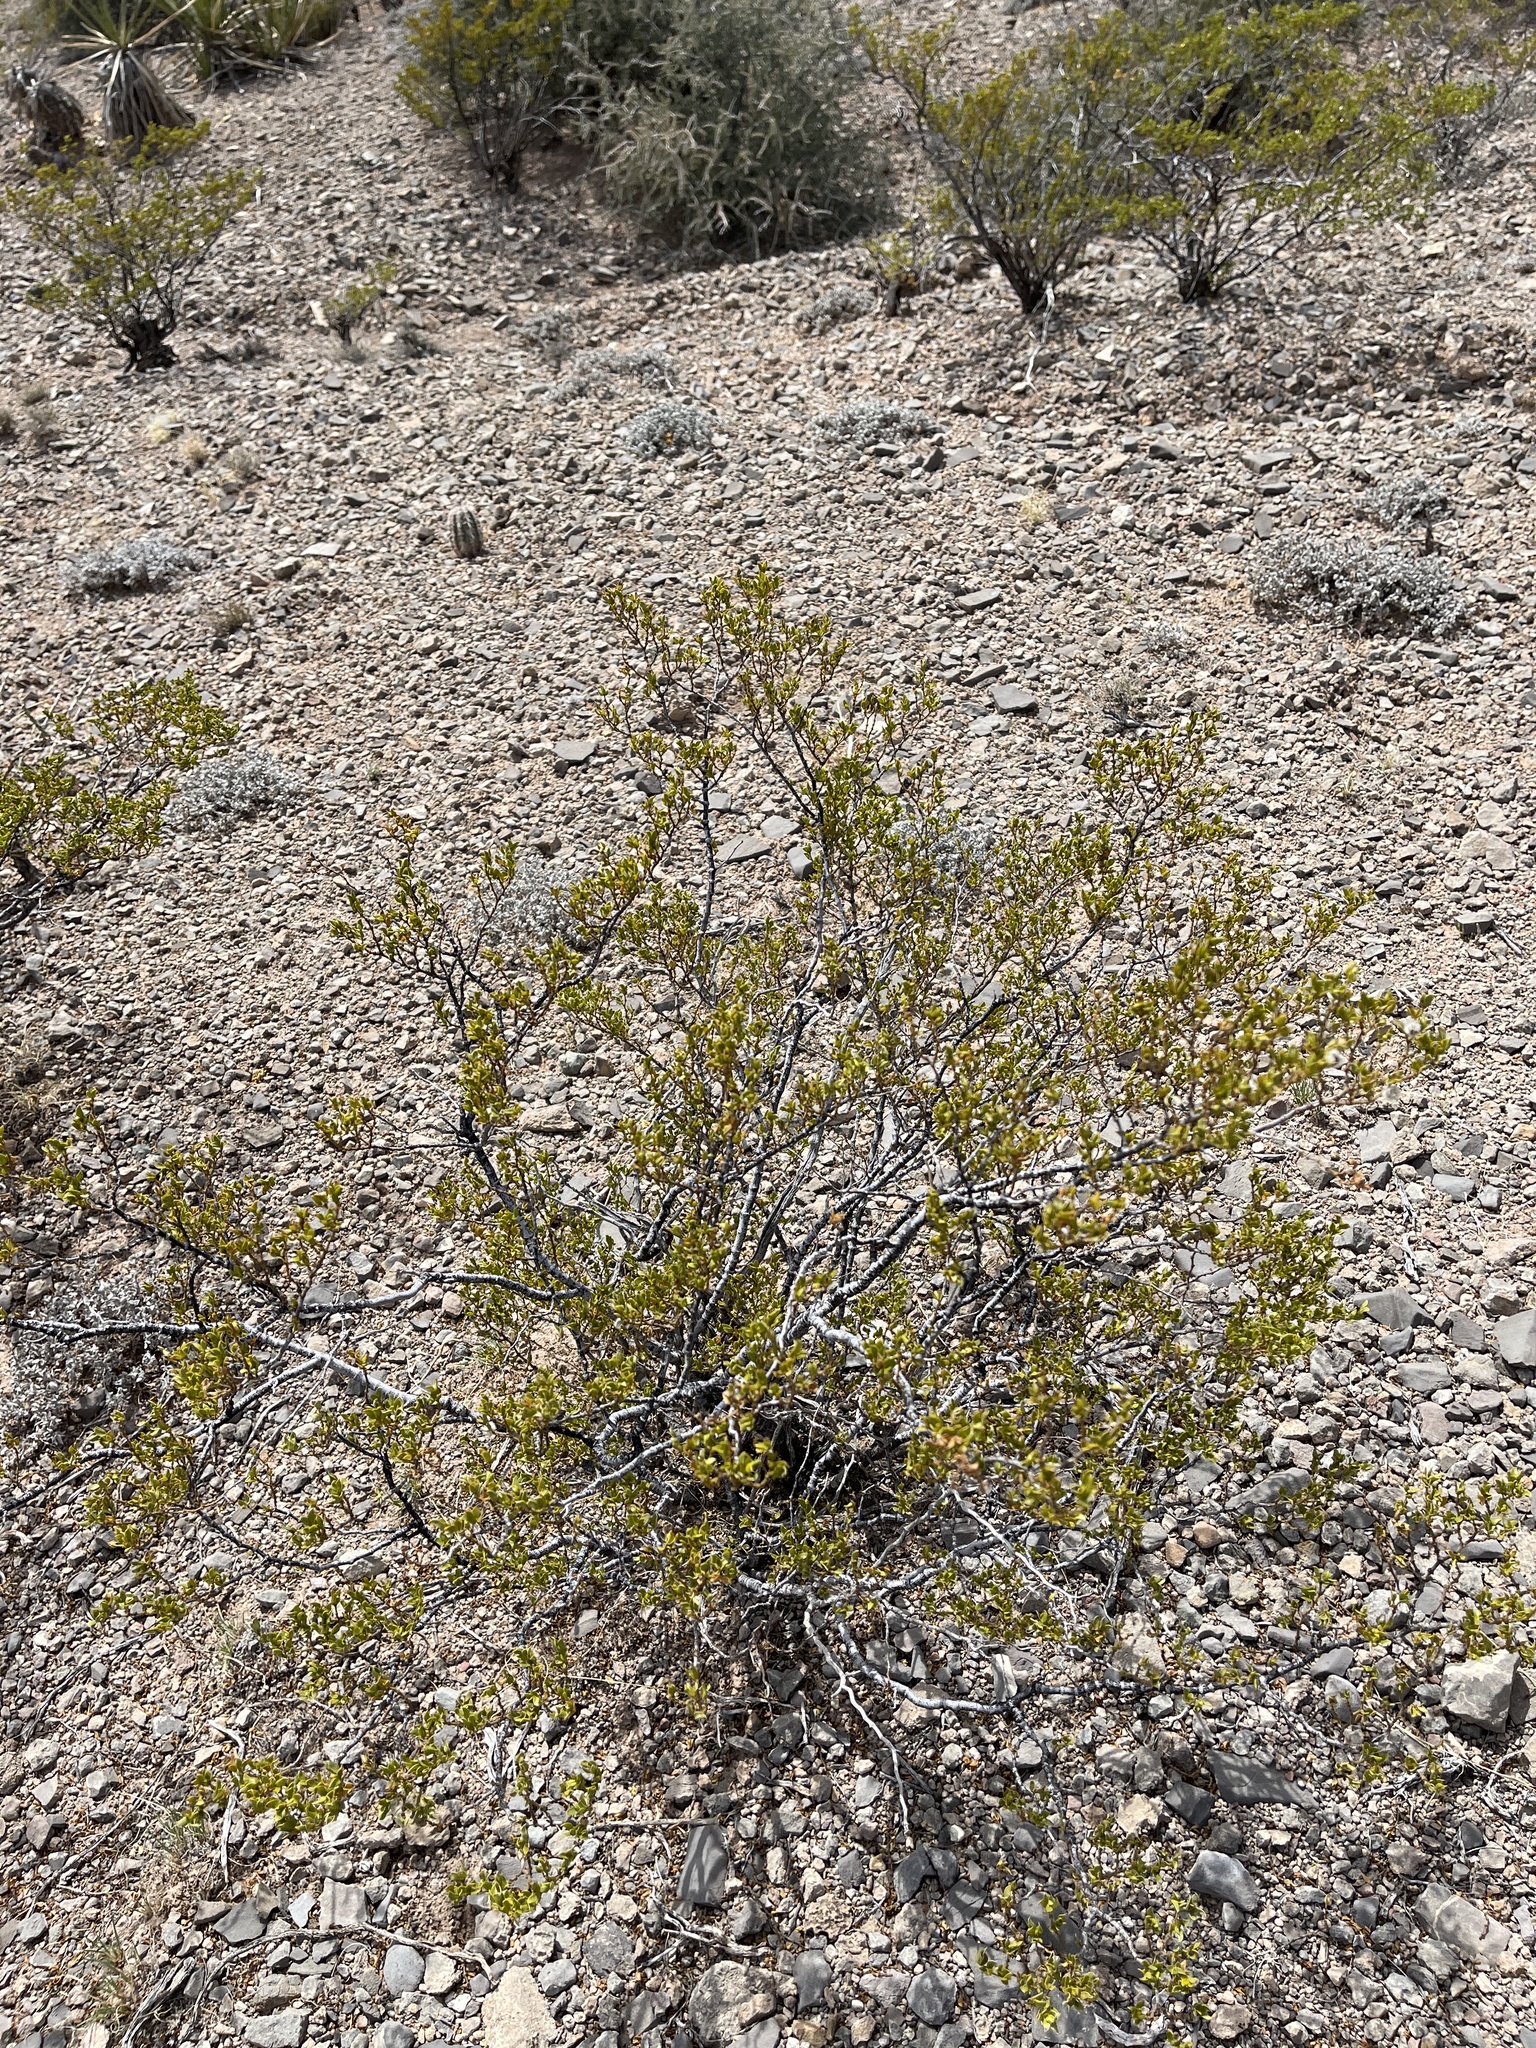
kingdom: Plantae
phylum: Tracheophyta
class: Magnoliopsida
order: Zygophyllales
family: Zygophyllaceae
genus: Larrea
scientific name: Larrea tridentata
